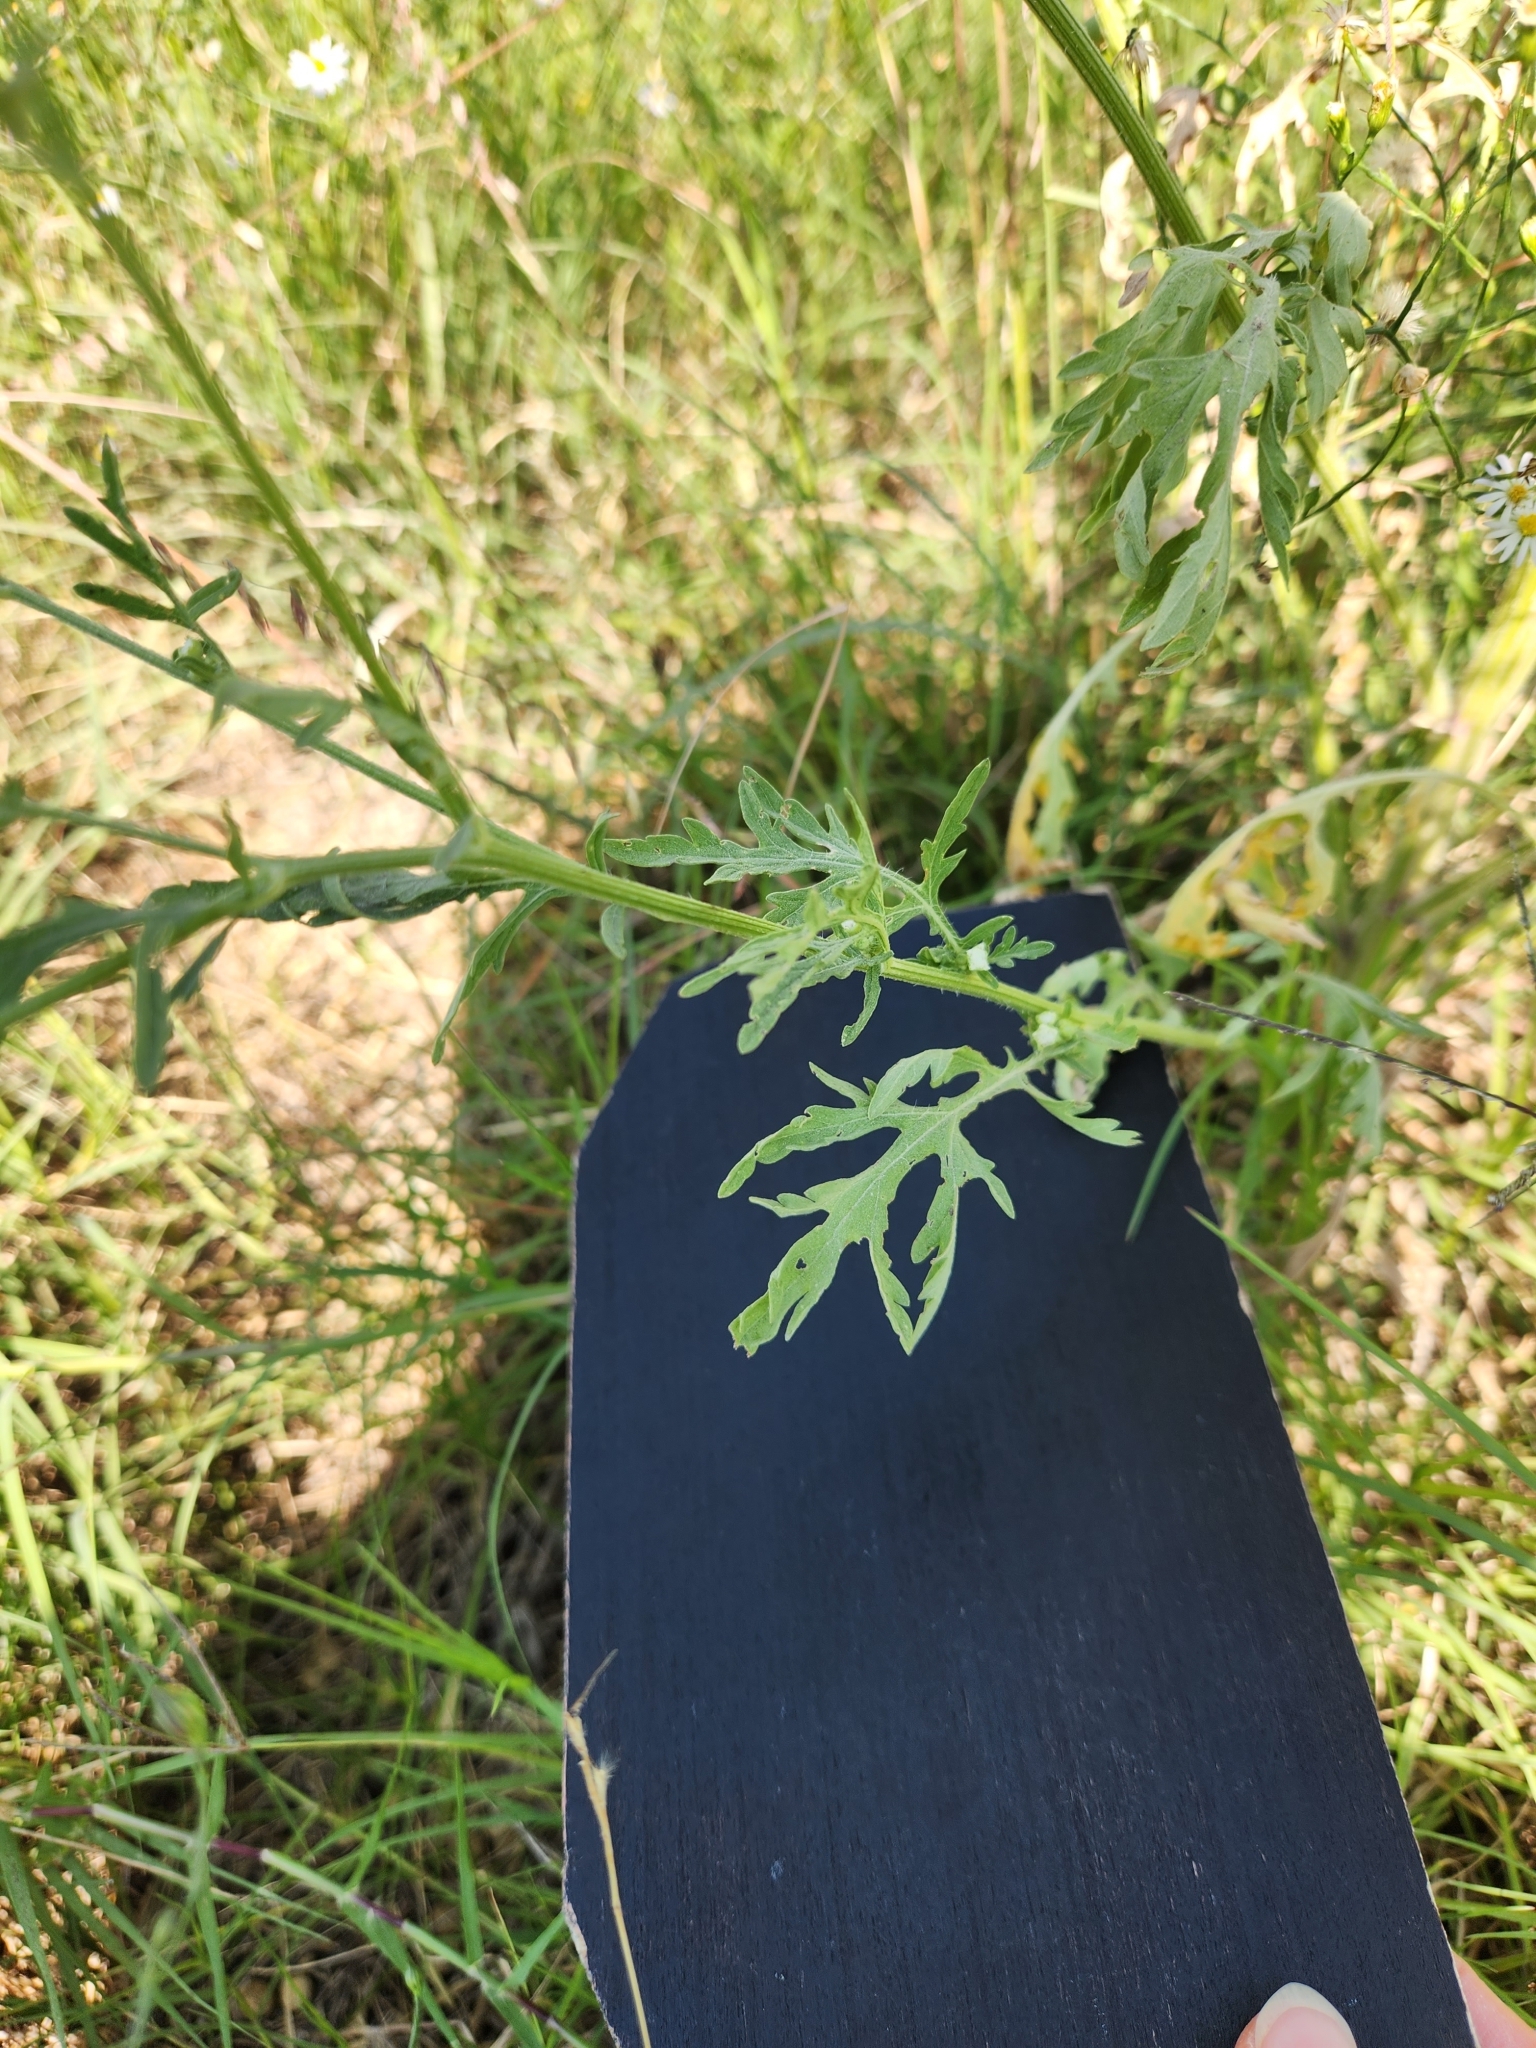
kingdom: Plantae
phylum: Tracheophyta
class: Magnoliopsida
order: Asterales
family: Asteraceae
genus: Parthenium
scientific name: Parthenium hysterophorus
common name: Santa maria feverfew
